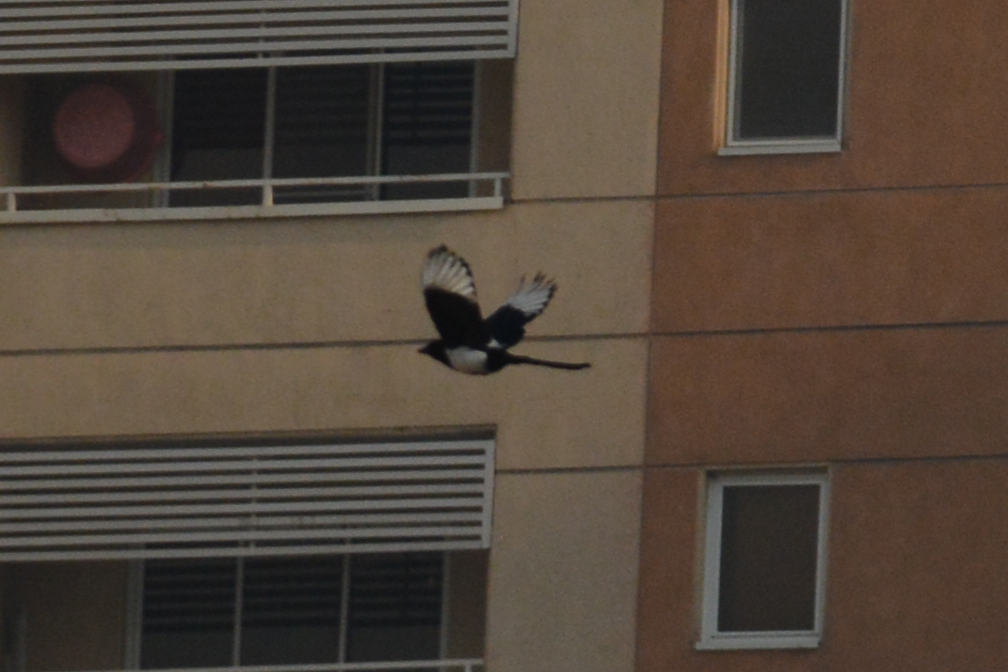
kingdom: Animalia
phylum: Chordata
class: Aves
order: Passeriformes
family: Corvidae
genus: Pica
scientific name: Pica pica
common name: Eurasian magpie
